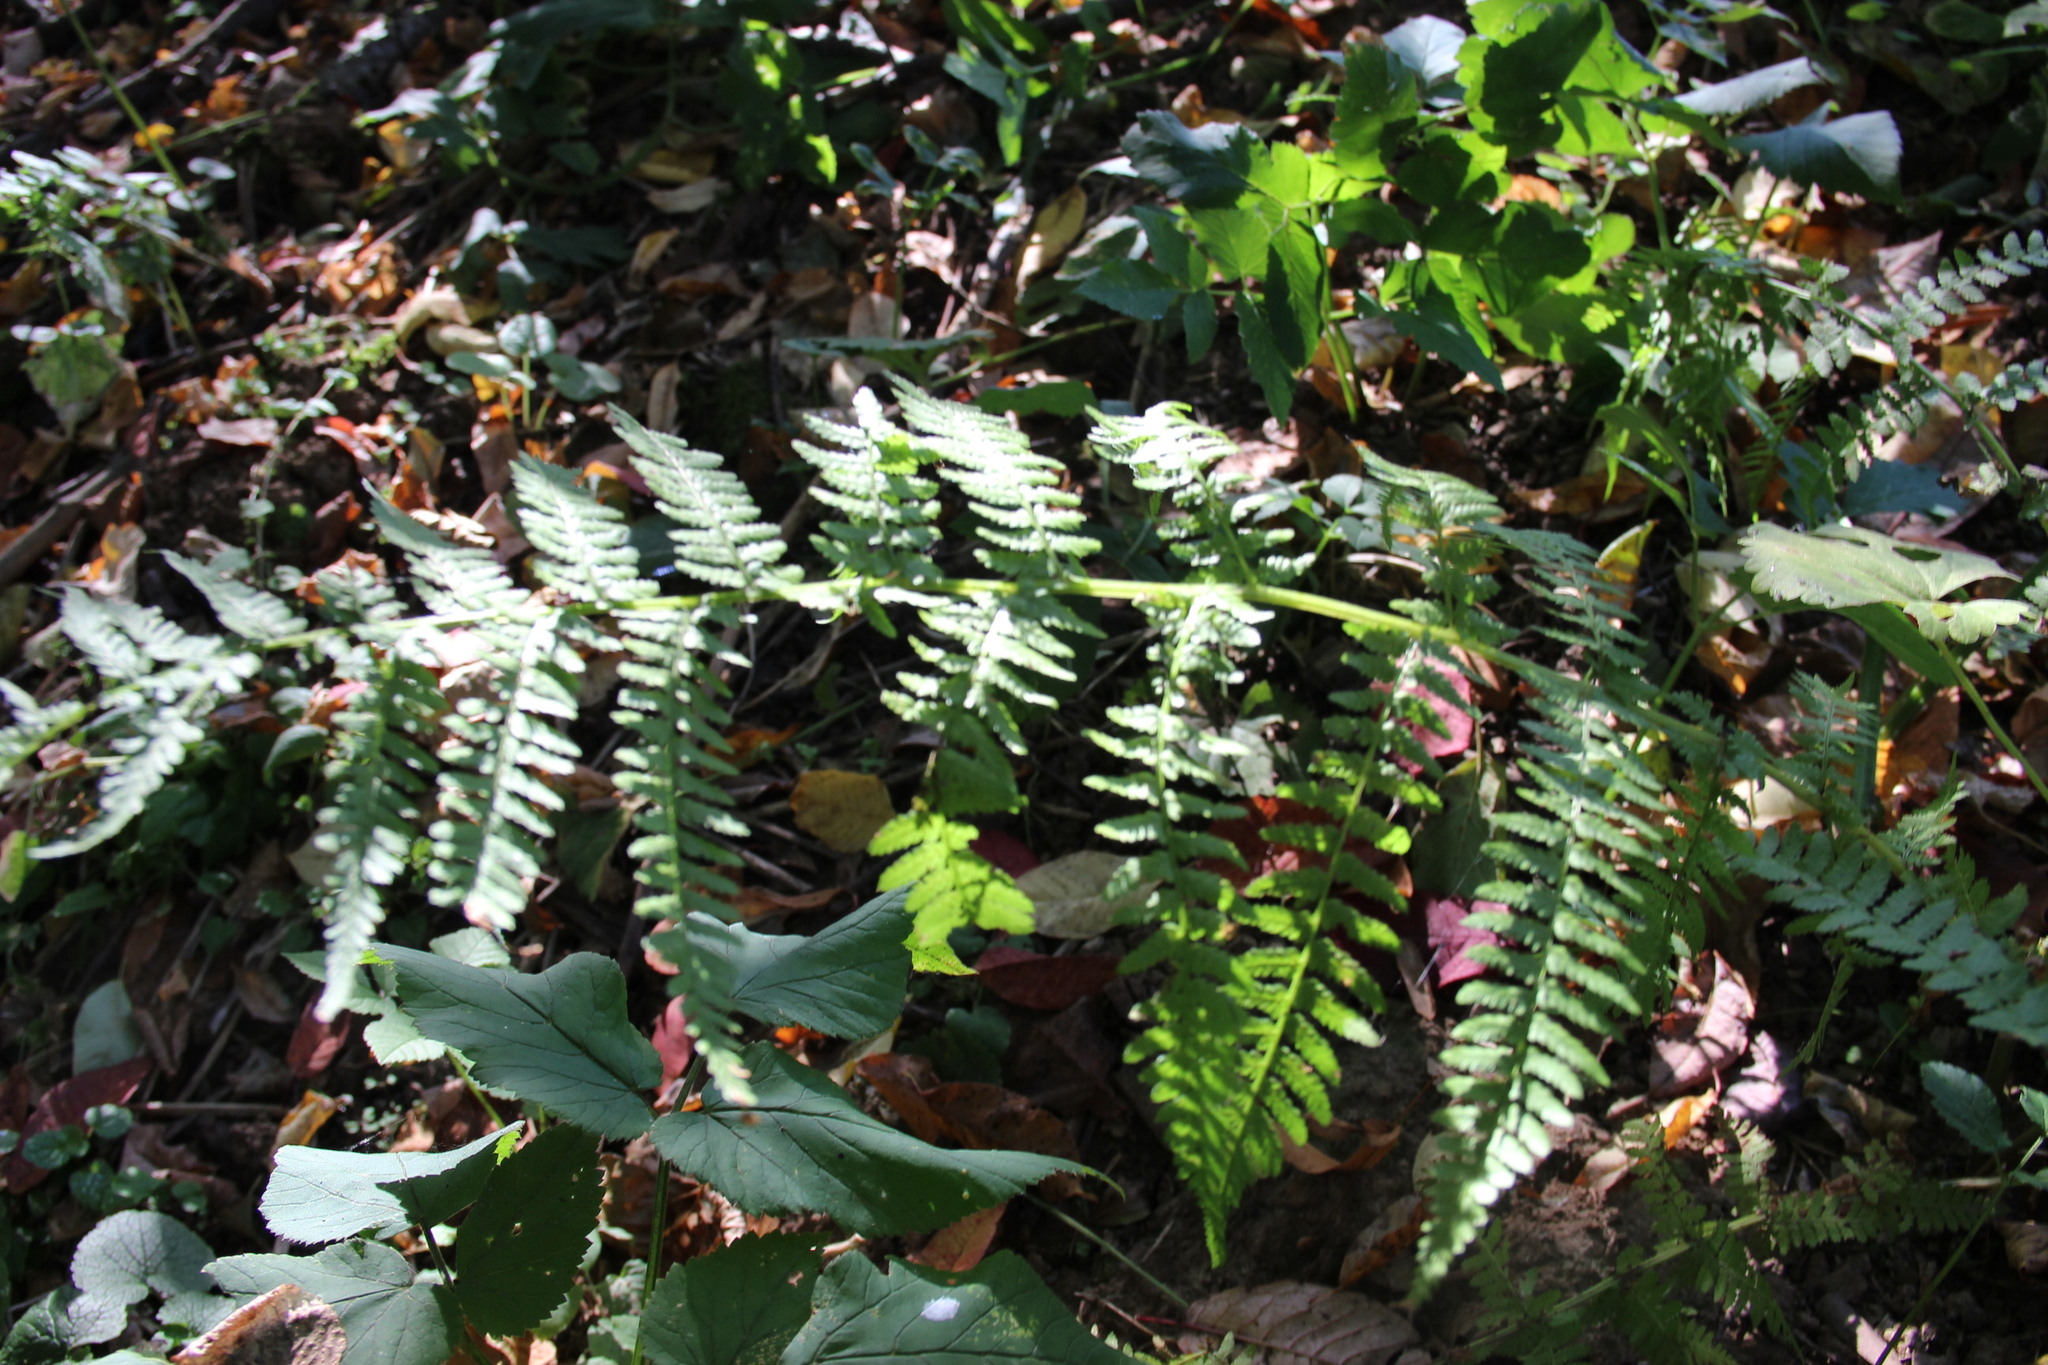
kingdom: Plantae
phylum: Tracheophyta
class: Polypodiopsida
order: Polypodiales
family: Athyriaceae
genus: Athyrium
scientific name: Athyrium filix-femina
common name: Lady fern
